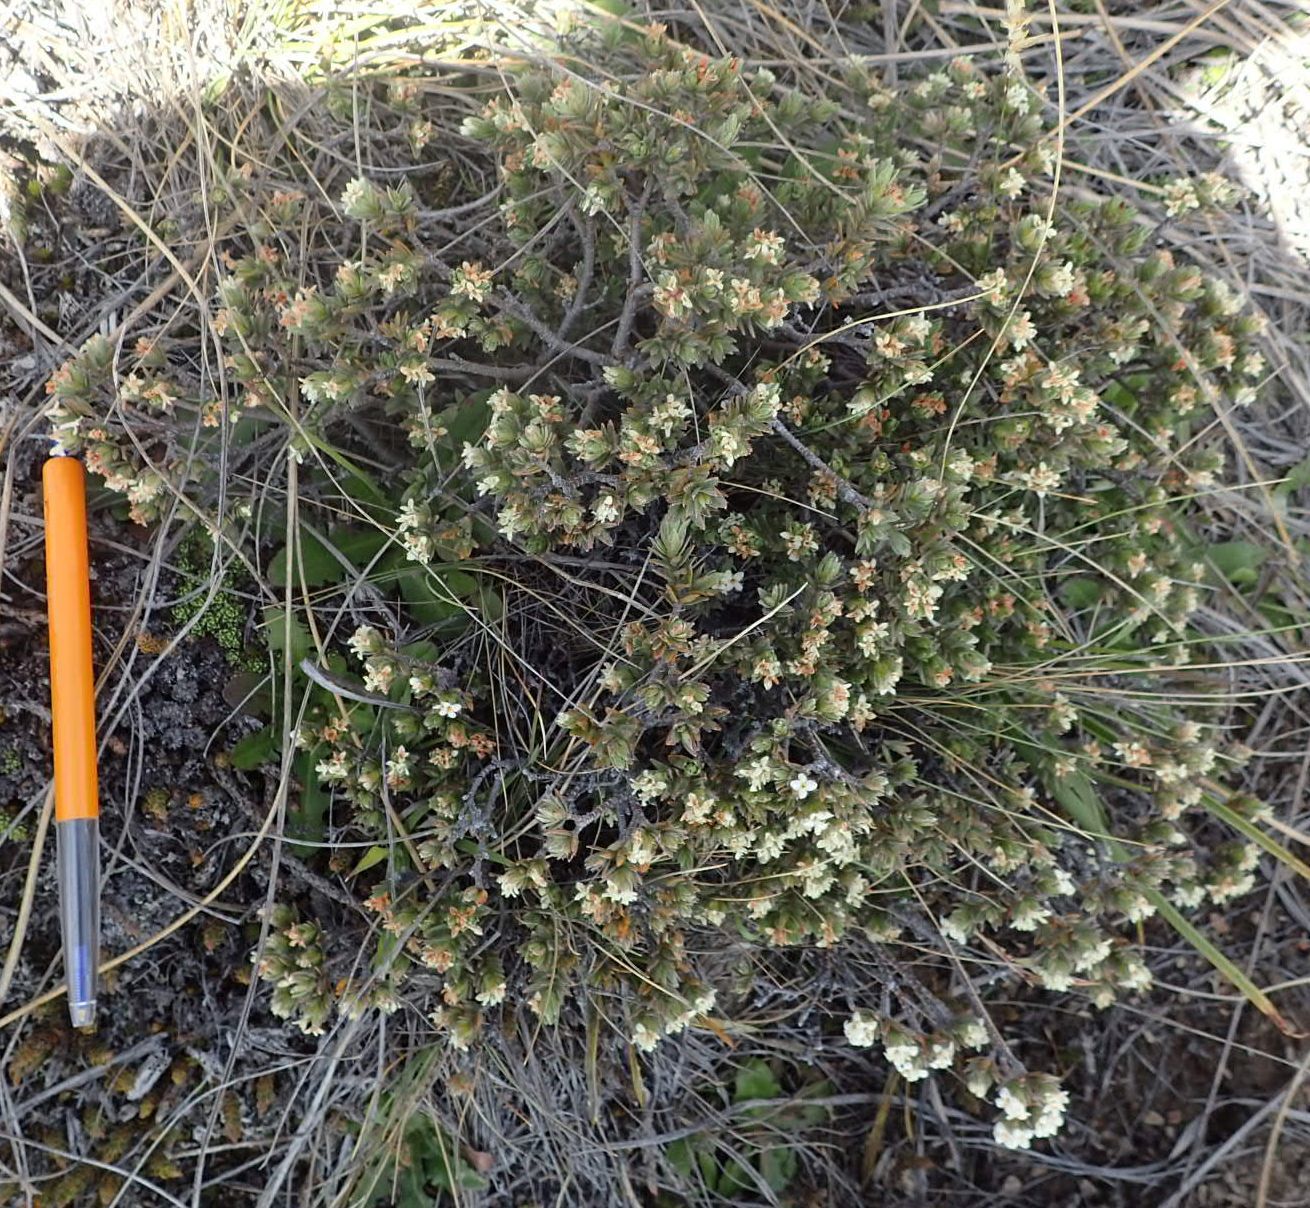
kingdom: Plantae
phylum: Tracheophyta
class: Magnoliopsida
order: Malvales
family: Thymelaeaceae
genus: Pimelea
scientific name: Pimelea oreophila
